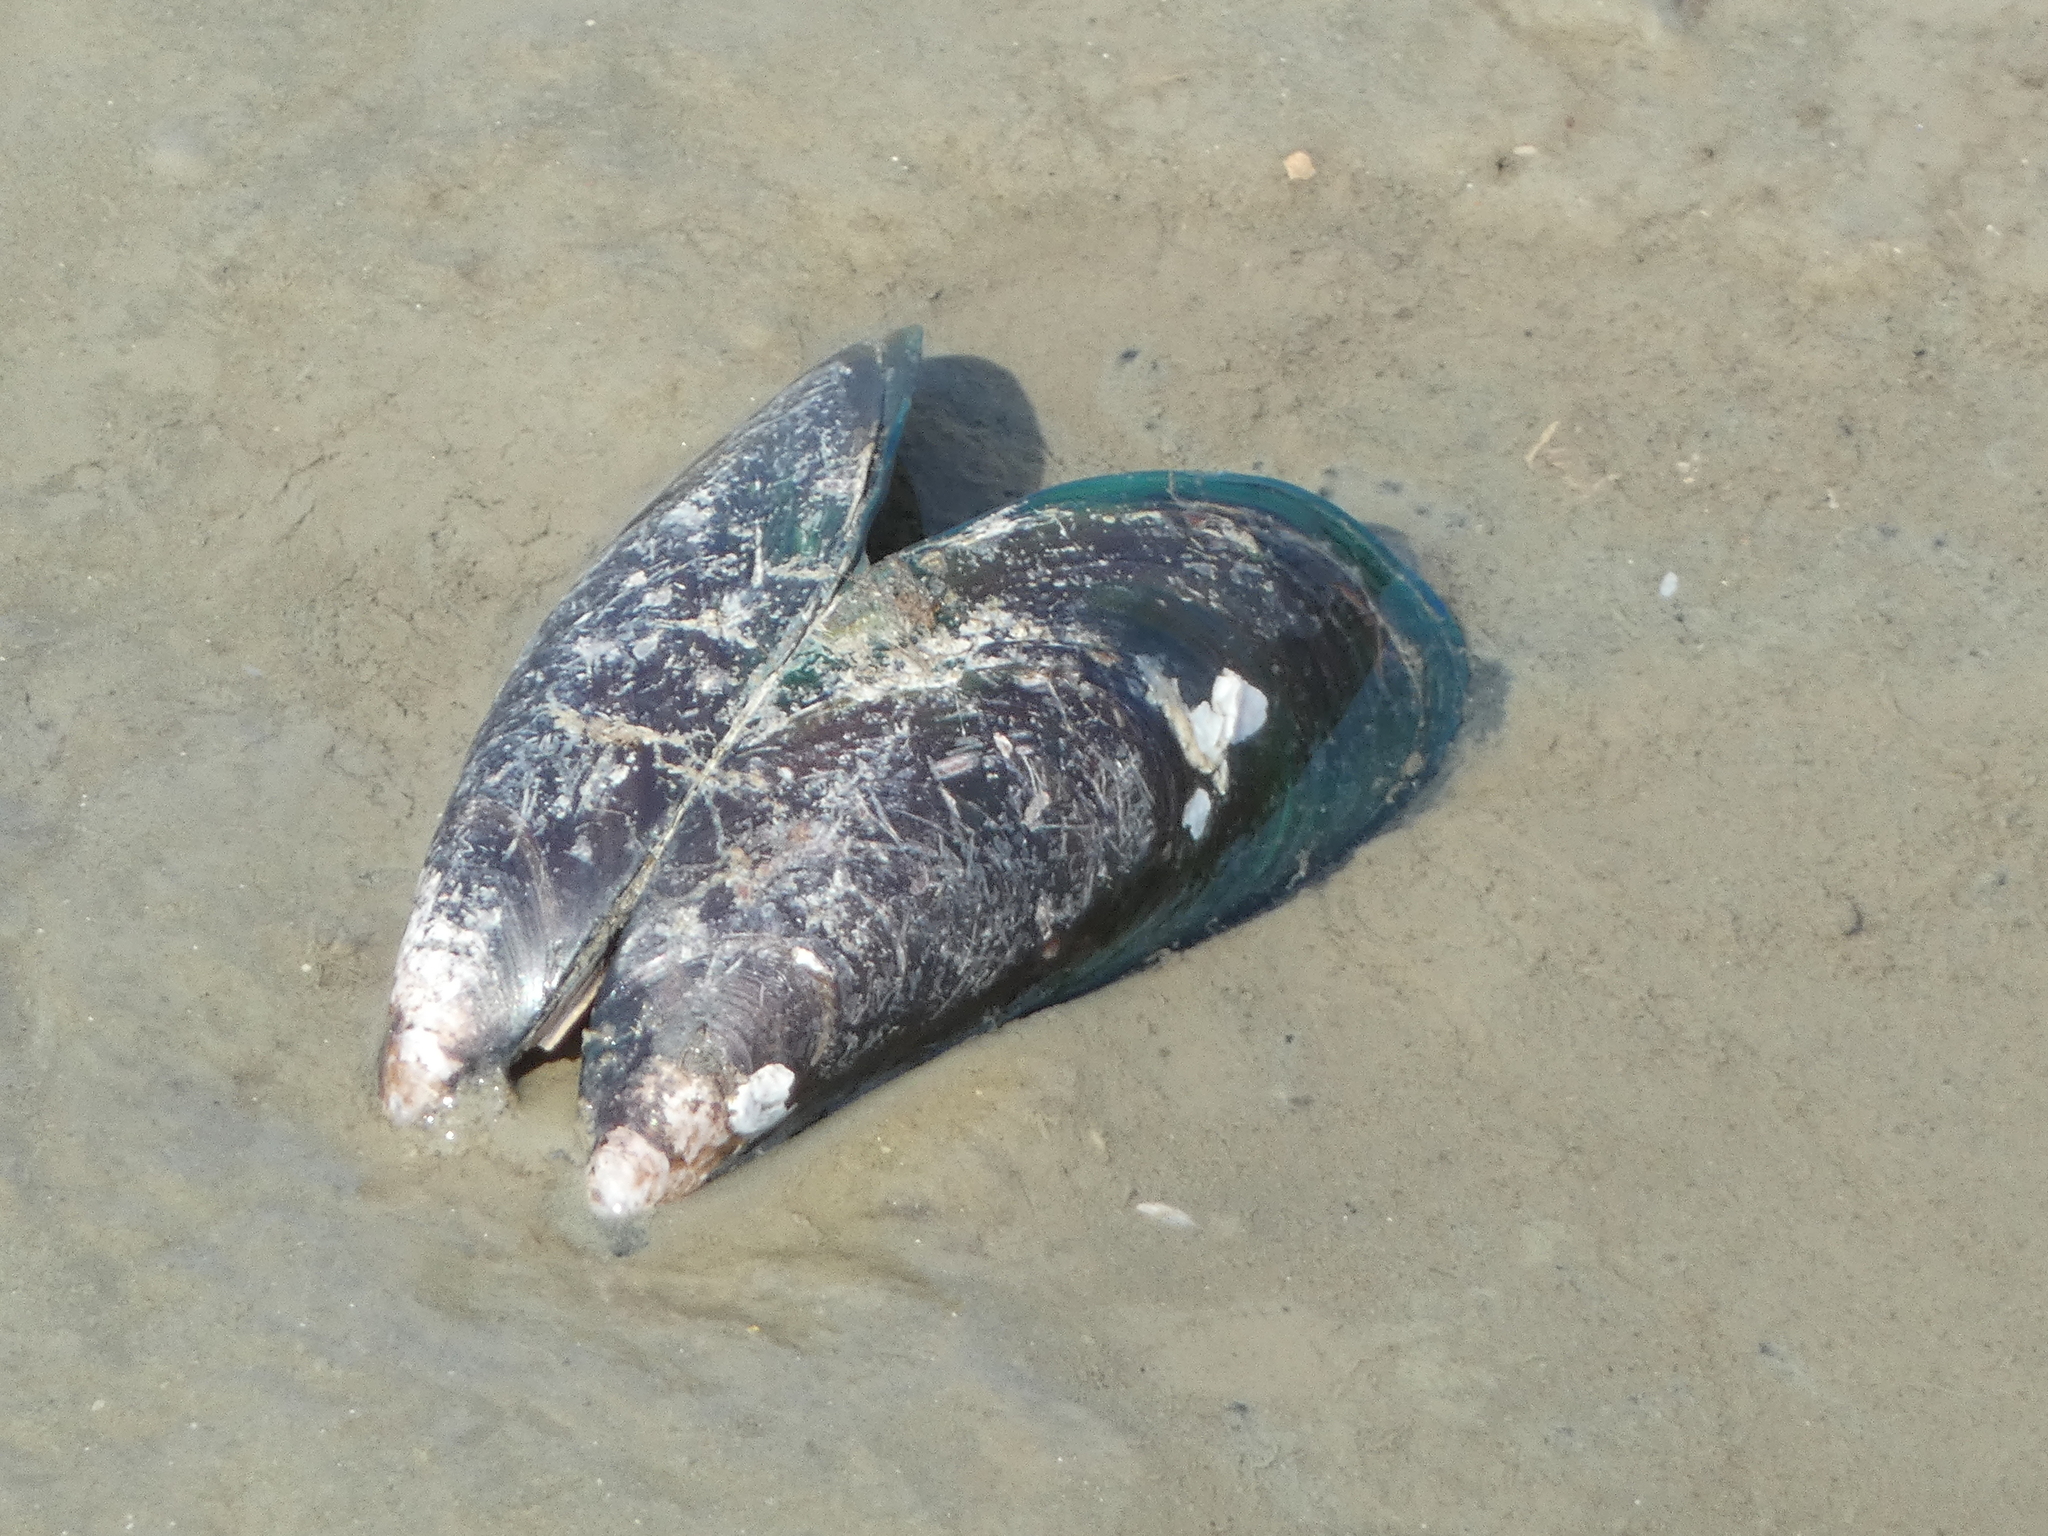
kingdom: Animalia
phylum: Mollusca
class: Bivalvia
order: Mytilida
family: Mytilidae
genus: Perna
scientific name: Perna viridis
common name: Green mussel
